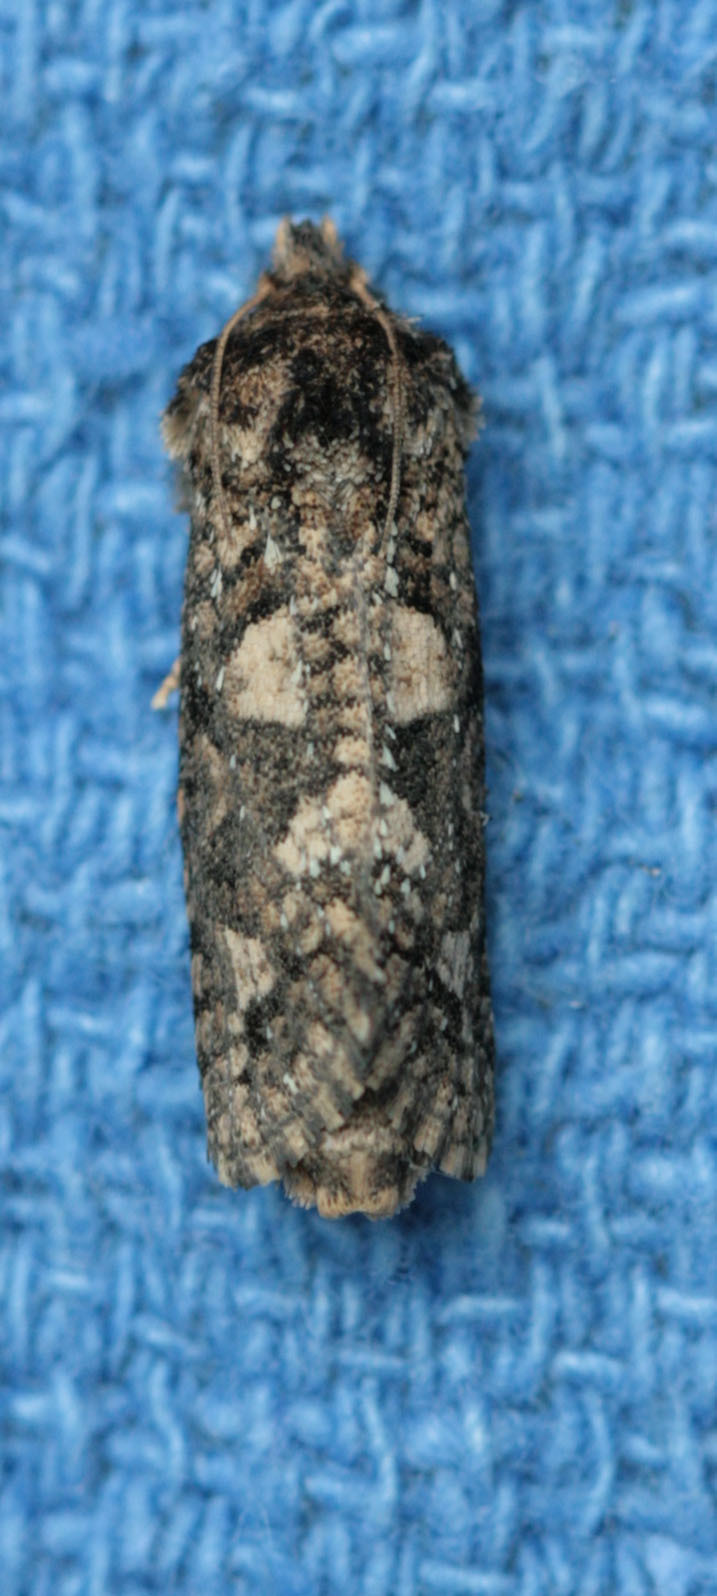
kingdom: Animalia
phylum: Arthropoda
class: Insecta
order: Lepidoptera
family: Tineidae
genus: Acrolophus
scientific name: Acrolophus piger
